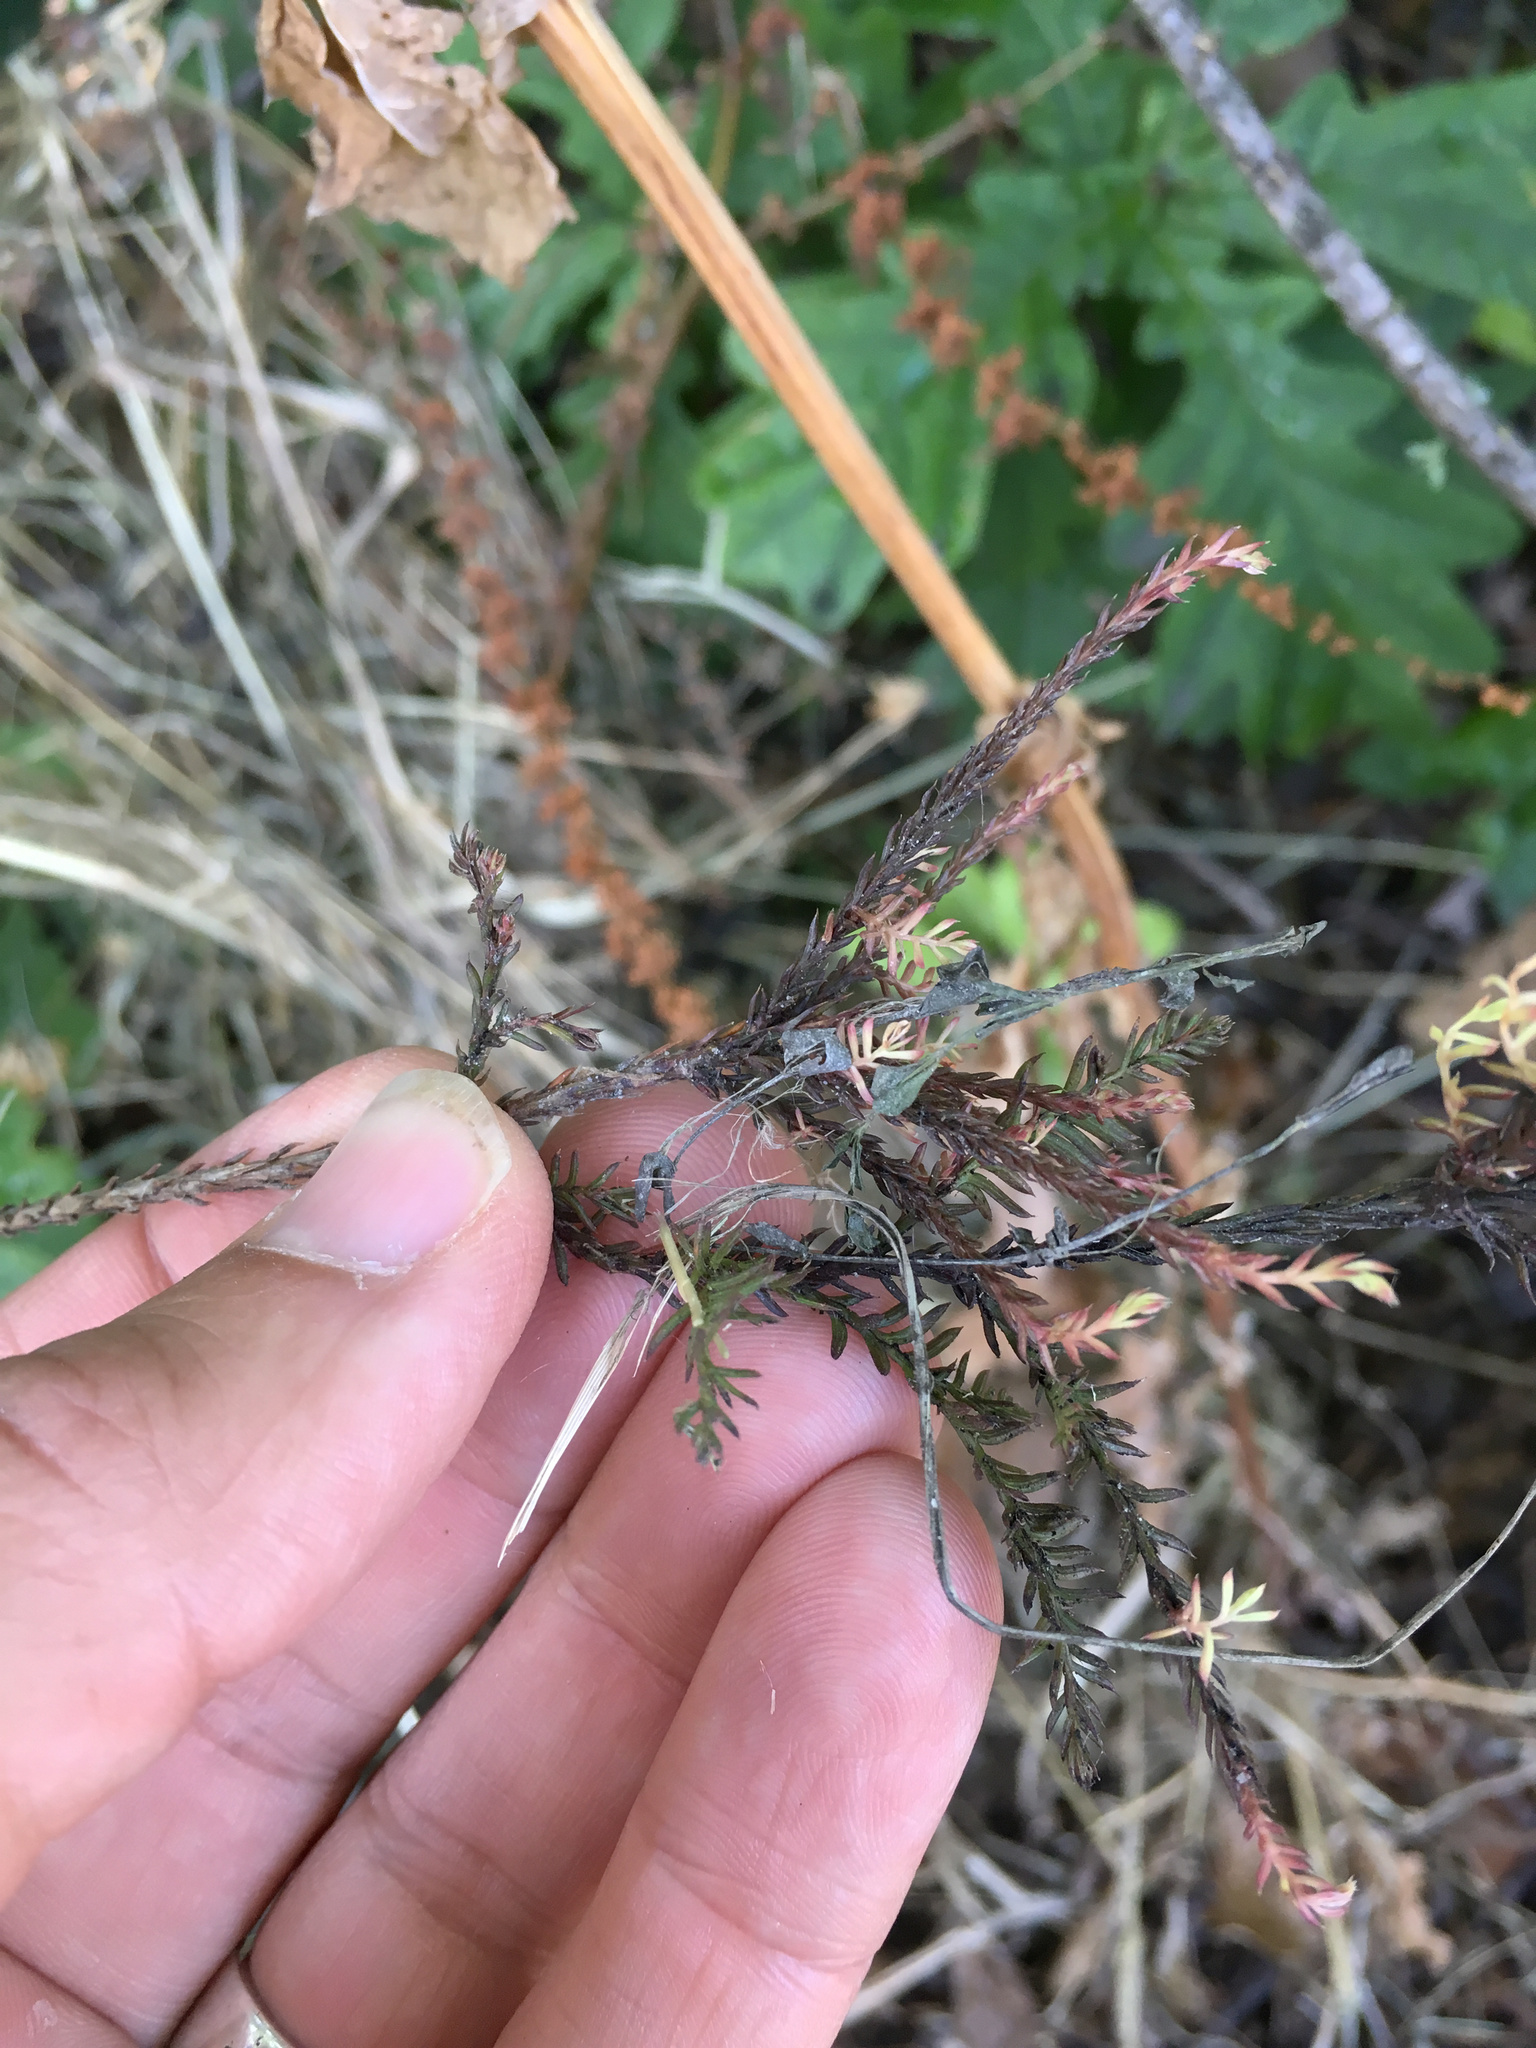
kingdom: Plantae
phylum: Tracheophyta
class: Pinopsida
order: Pinales
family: Podocarpaceae
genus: Dacrycarpus
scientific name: Dacrycarpus dacrydioides
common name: White pine
